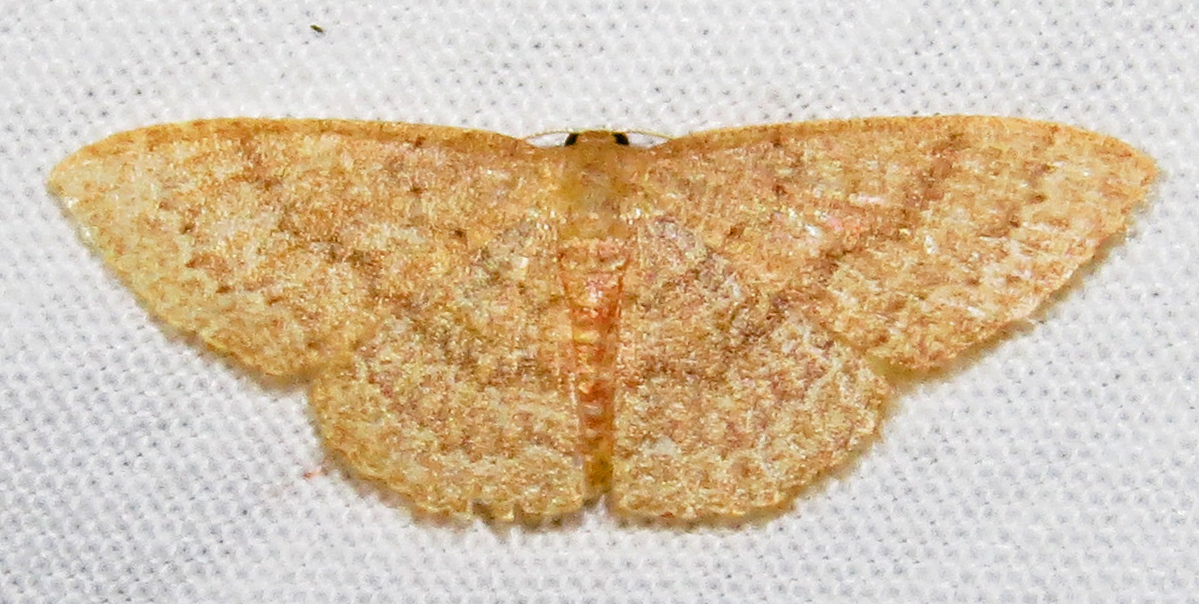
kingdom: Animalia
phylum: Arthropoda
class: Insecta
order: Lepidoptera
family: Geometridae
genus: Pleuroprucha
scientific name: Pleuroprucha insulsaria
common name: Common tan wave
